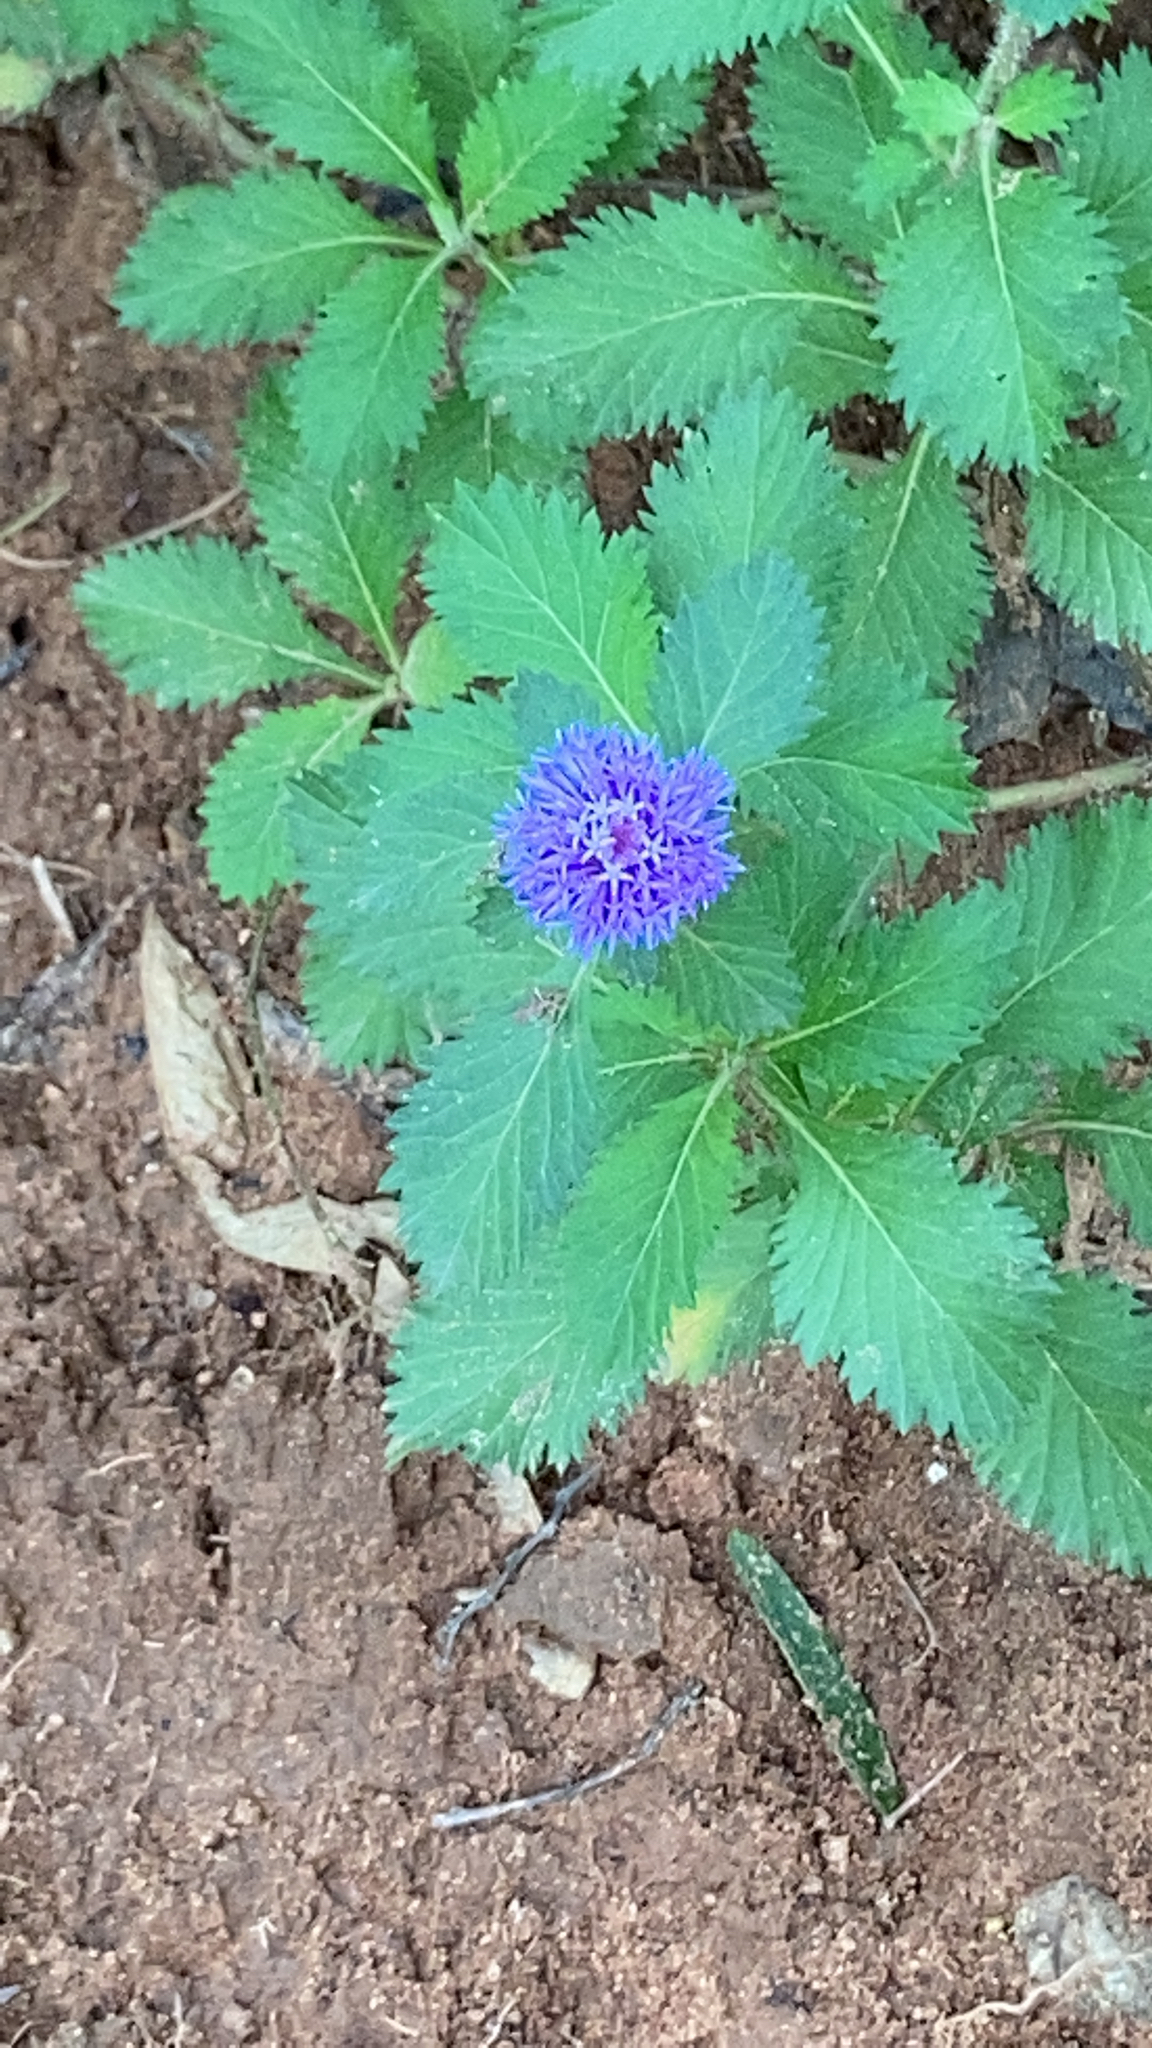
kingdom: Plantae
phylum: Tracheophyta
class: Magnoliopsida
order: Asterales
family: Asteraceae
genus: Centratherum
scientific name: Centratherum punctatum
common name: Larkdaisy
